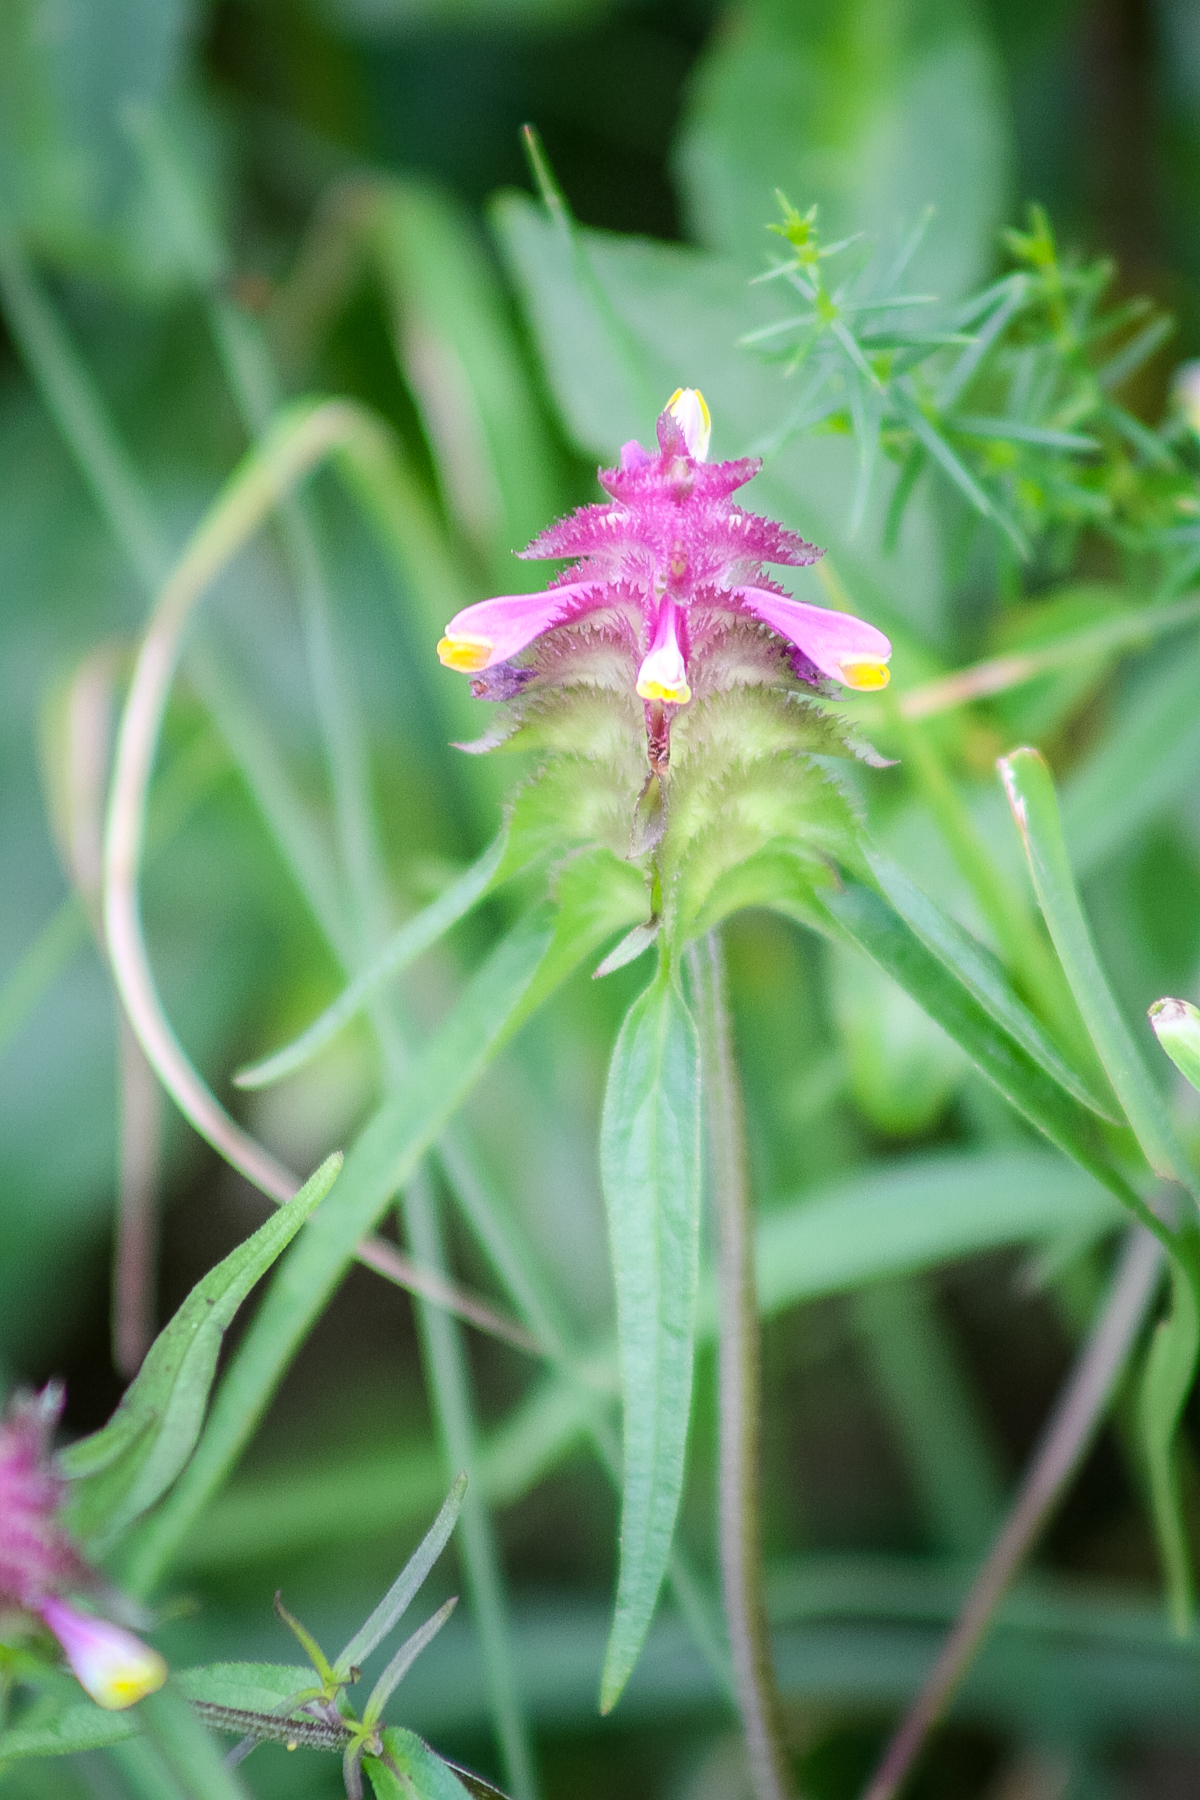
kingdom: Plantae
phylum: Tracheophyta
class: Magnoliopsida
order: Lamiales
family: Orobanchaceae
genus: Melampyrum
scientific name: Melampyrum cristatum
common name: Crested cow-wheat
